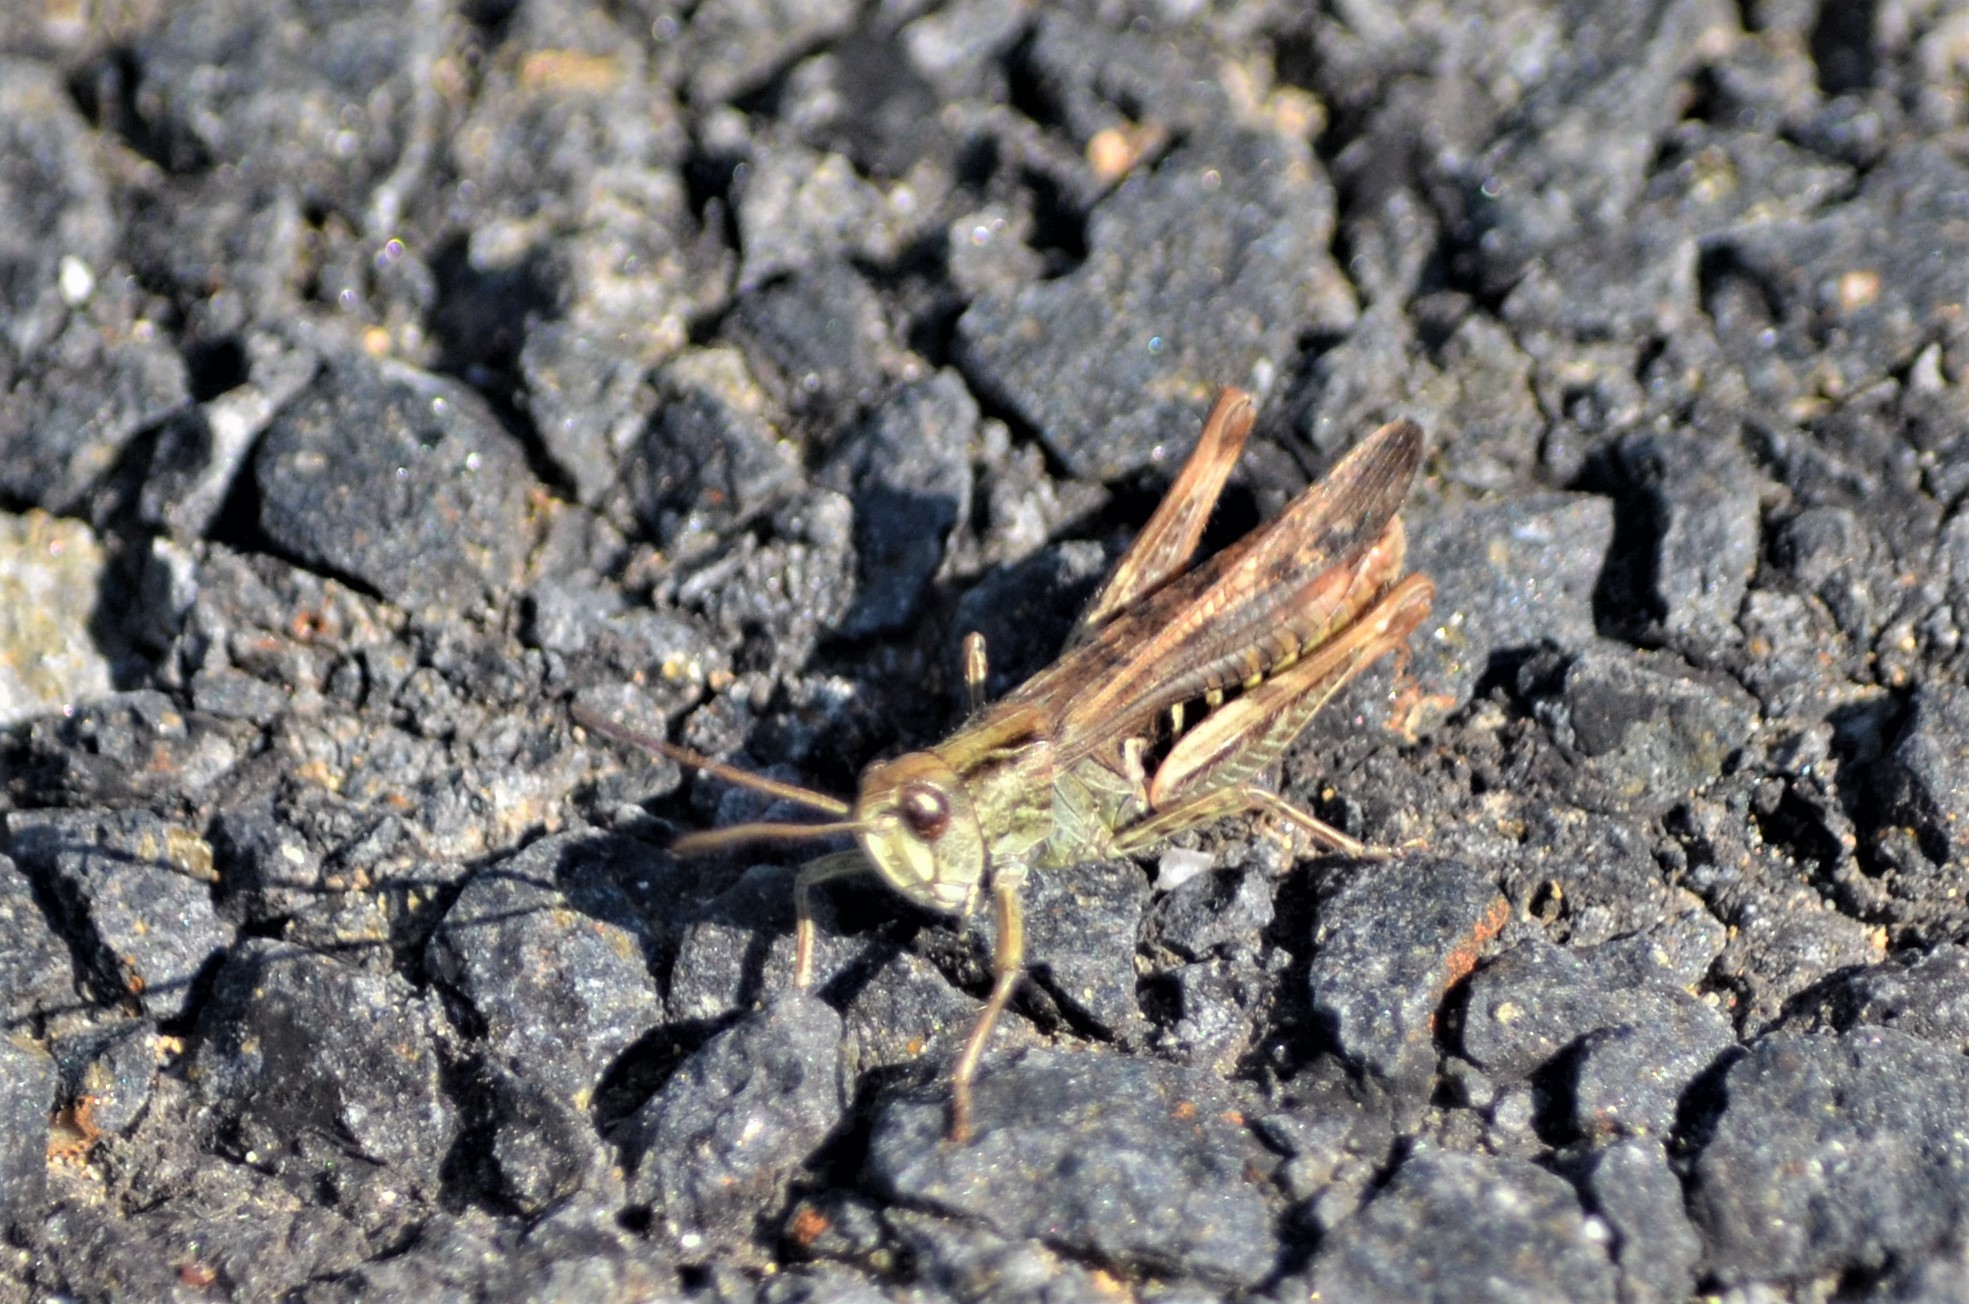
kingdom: Animalia
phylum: Arthropoda
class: Insecta
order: Orthoptera
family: Acrididae
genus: Chorthippus
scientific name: Chorthippus biguttulus
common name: Bow-winged grasshopper
